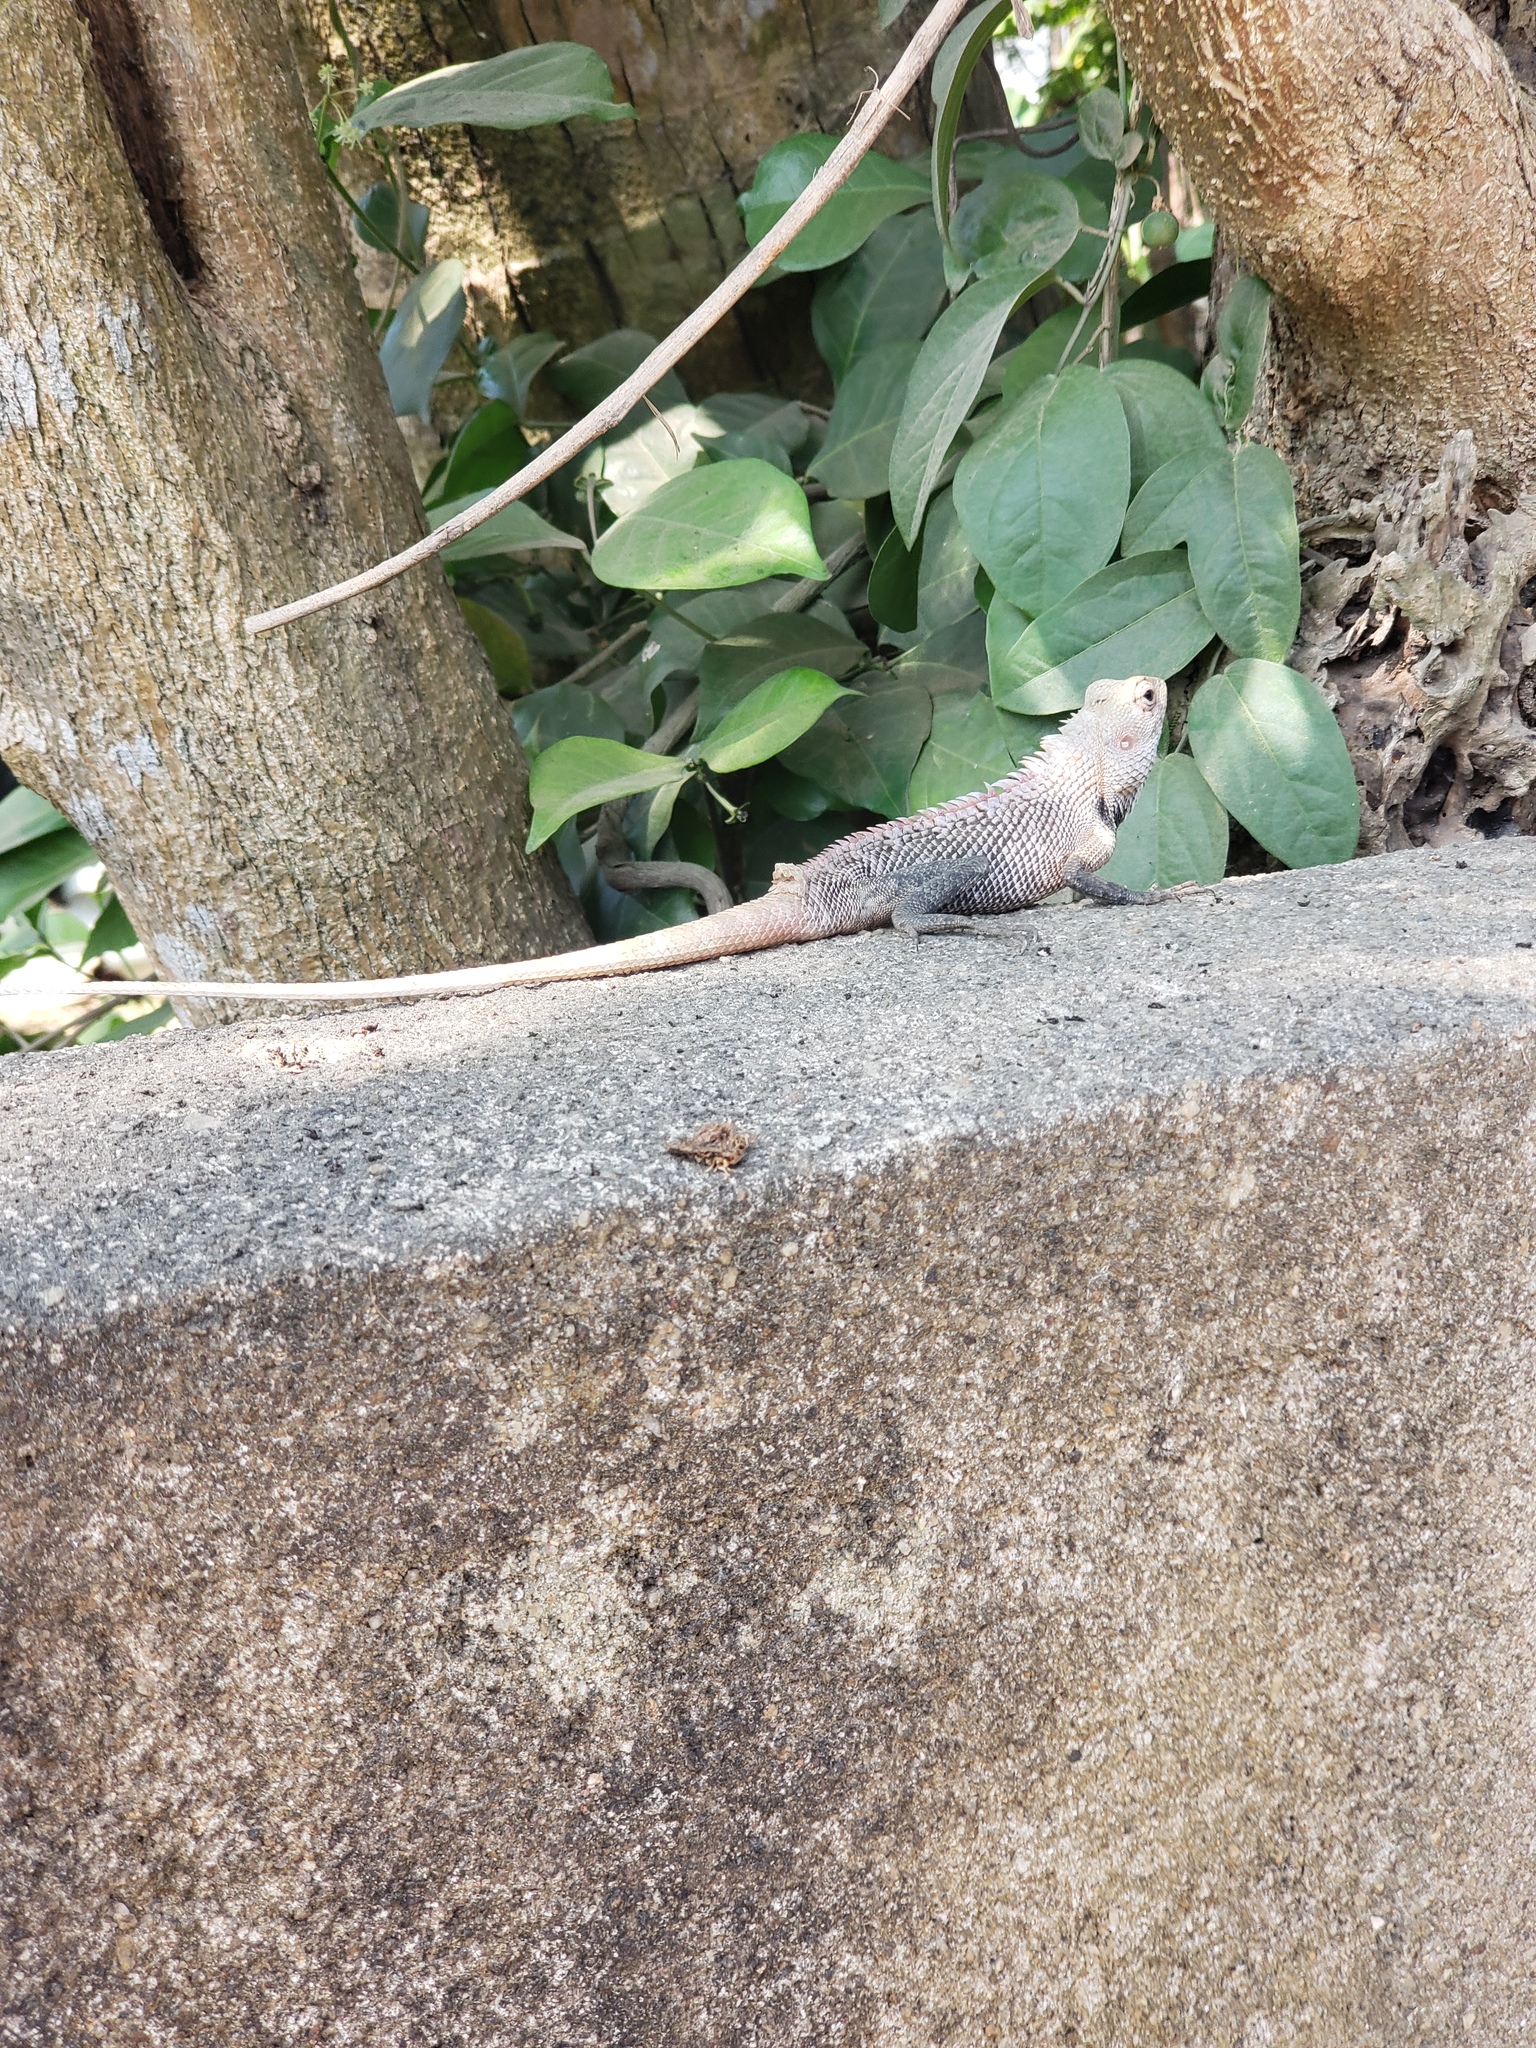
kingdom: Animalia
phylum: Chordata
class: Squamata
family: Agamidae
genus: Calotes
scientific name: Calotes versicolor
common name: Oriental garden lizard
